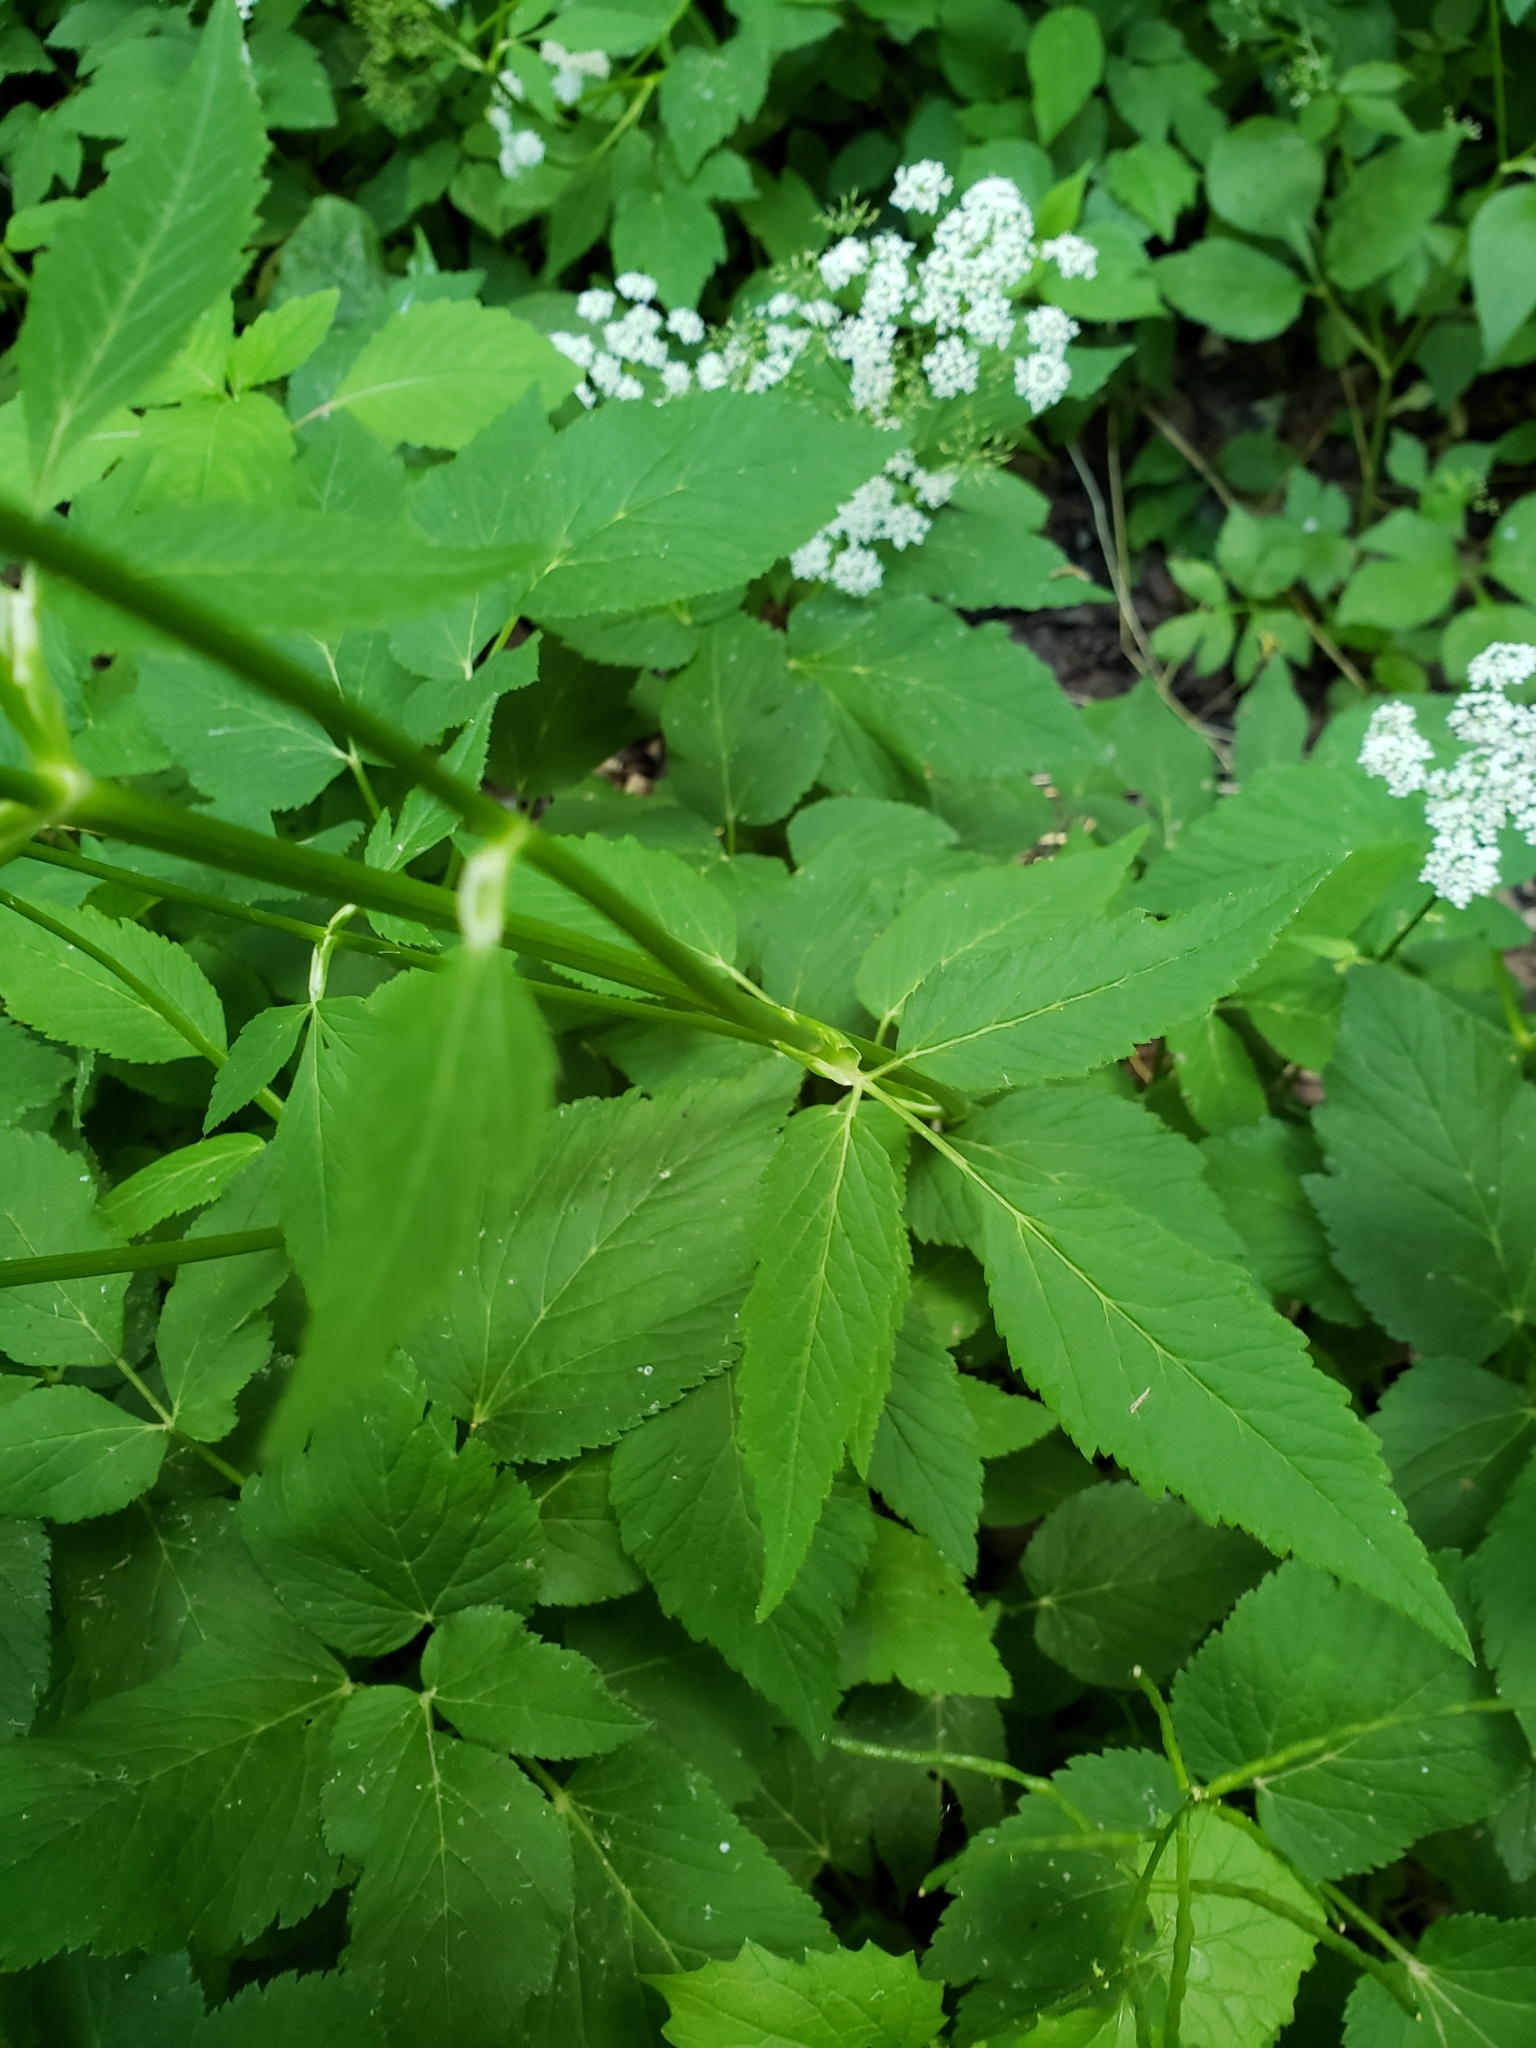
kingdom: Plantae
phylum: Tracheophyta
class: Magnoliopsida
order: Apiales
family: Apiaceae
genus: Aegopodium
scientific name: Aegopodium podagraria
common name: Ground-elder
